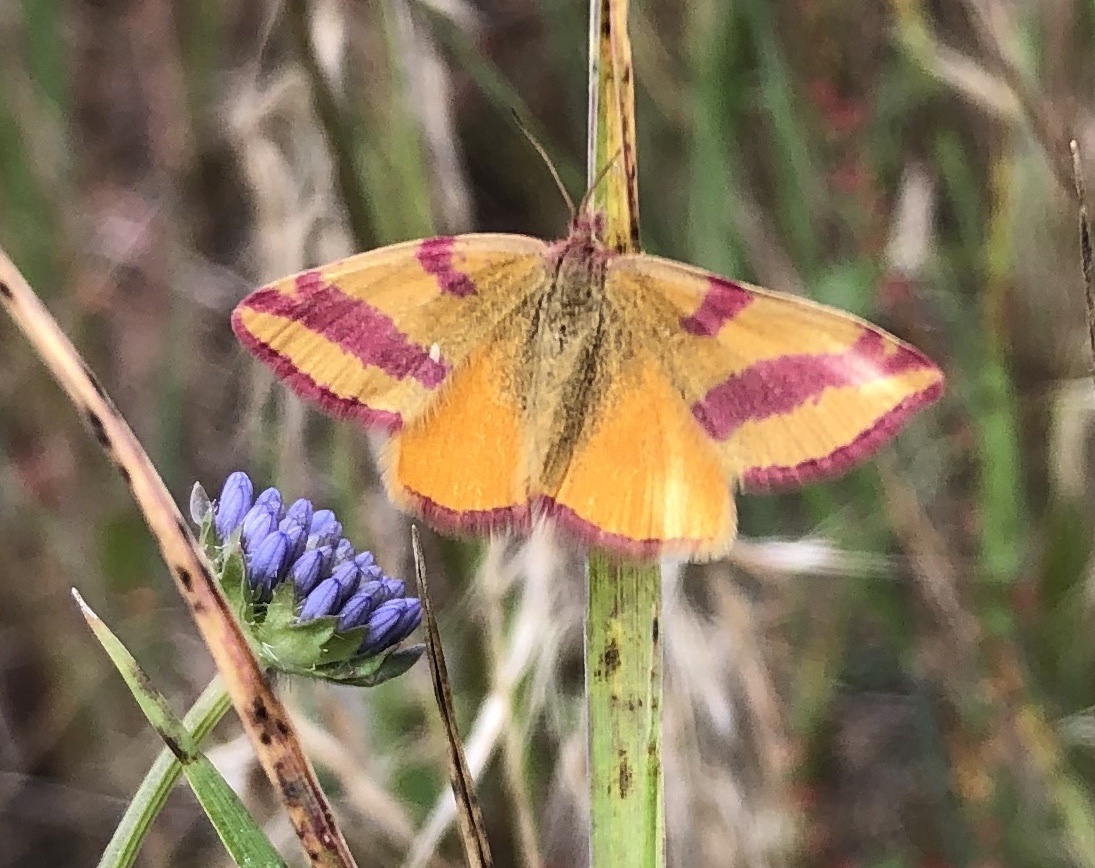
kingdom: Animalia
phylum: Arthropoda
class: Insecta
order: Lepidoptera
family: Geometridae
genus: Lythria
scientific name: Lythria cruentaria
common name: Purple-barred yellow
